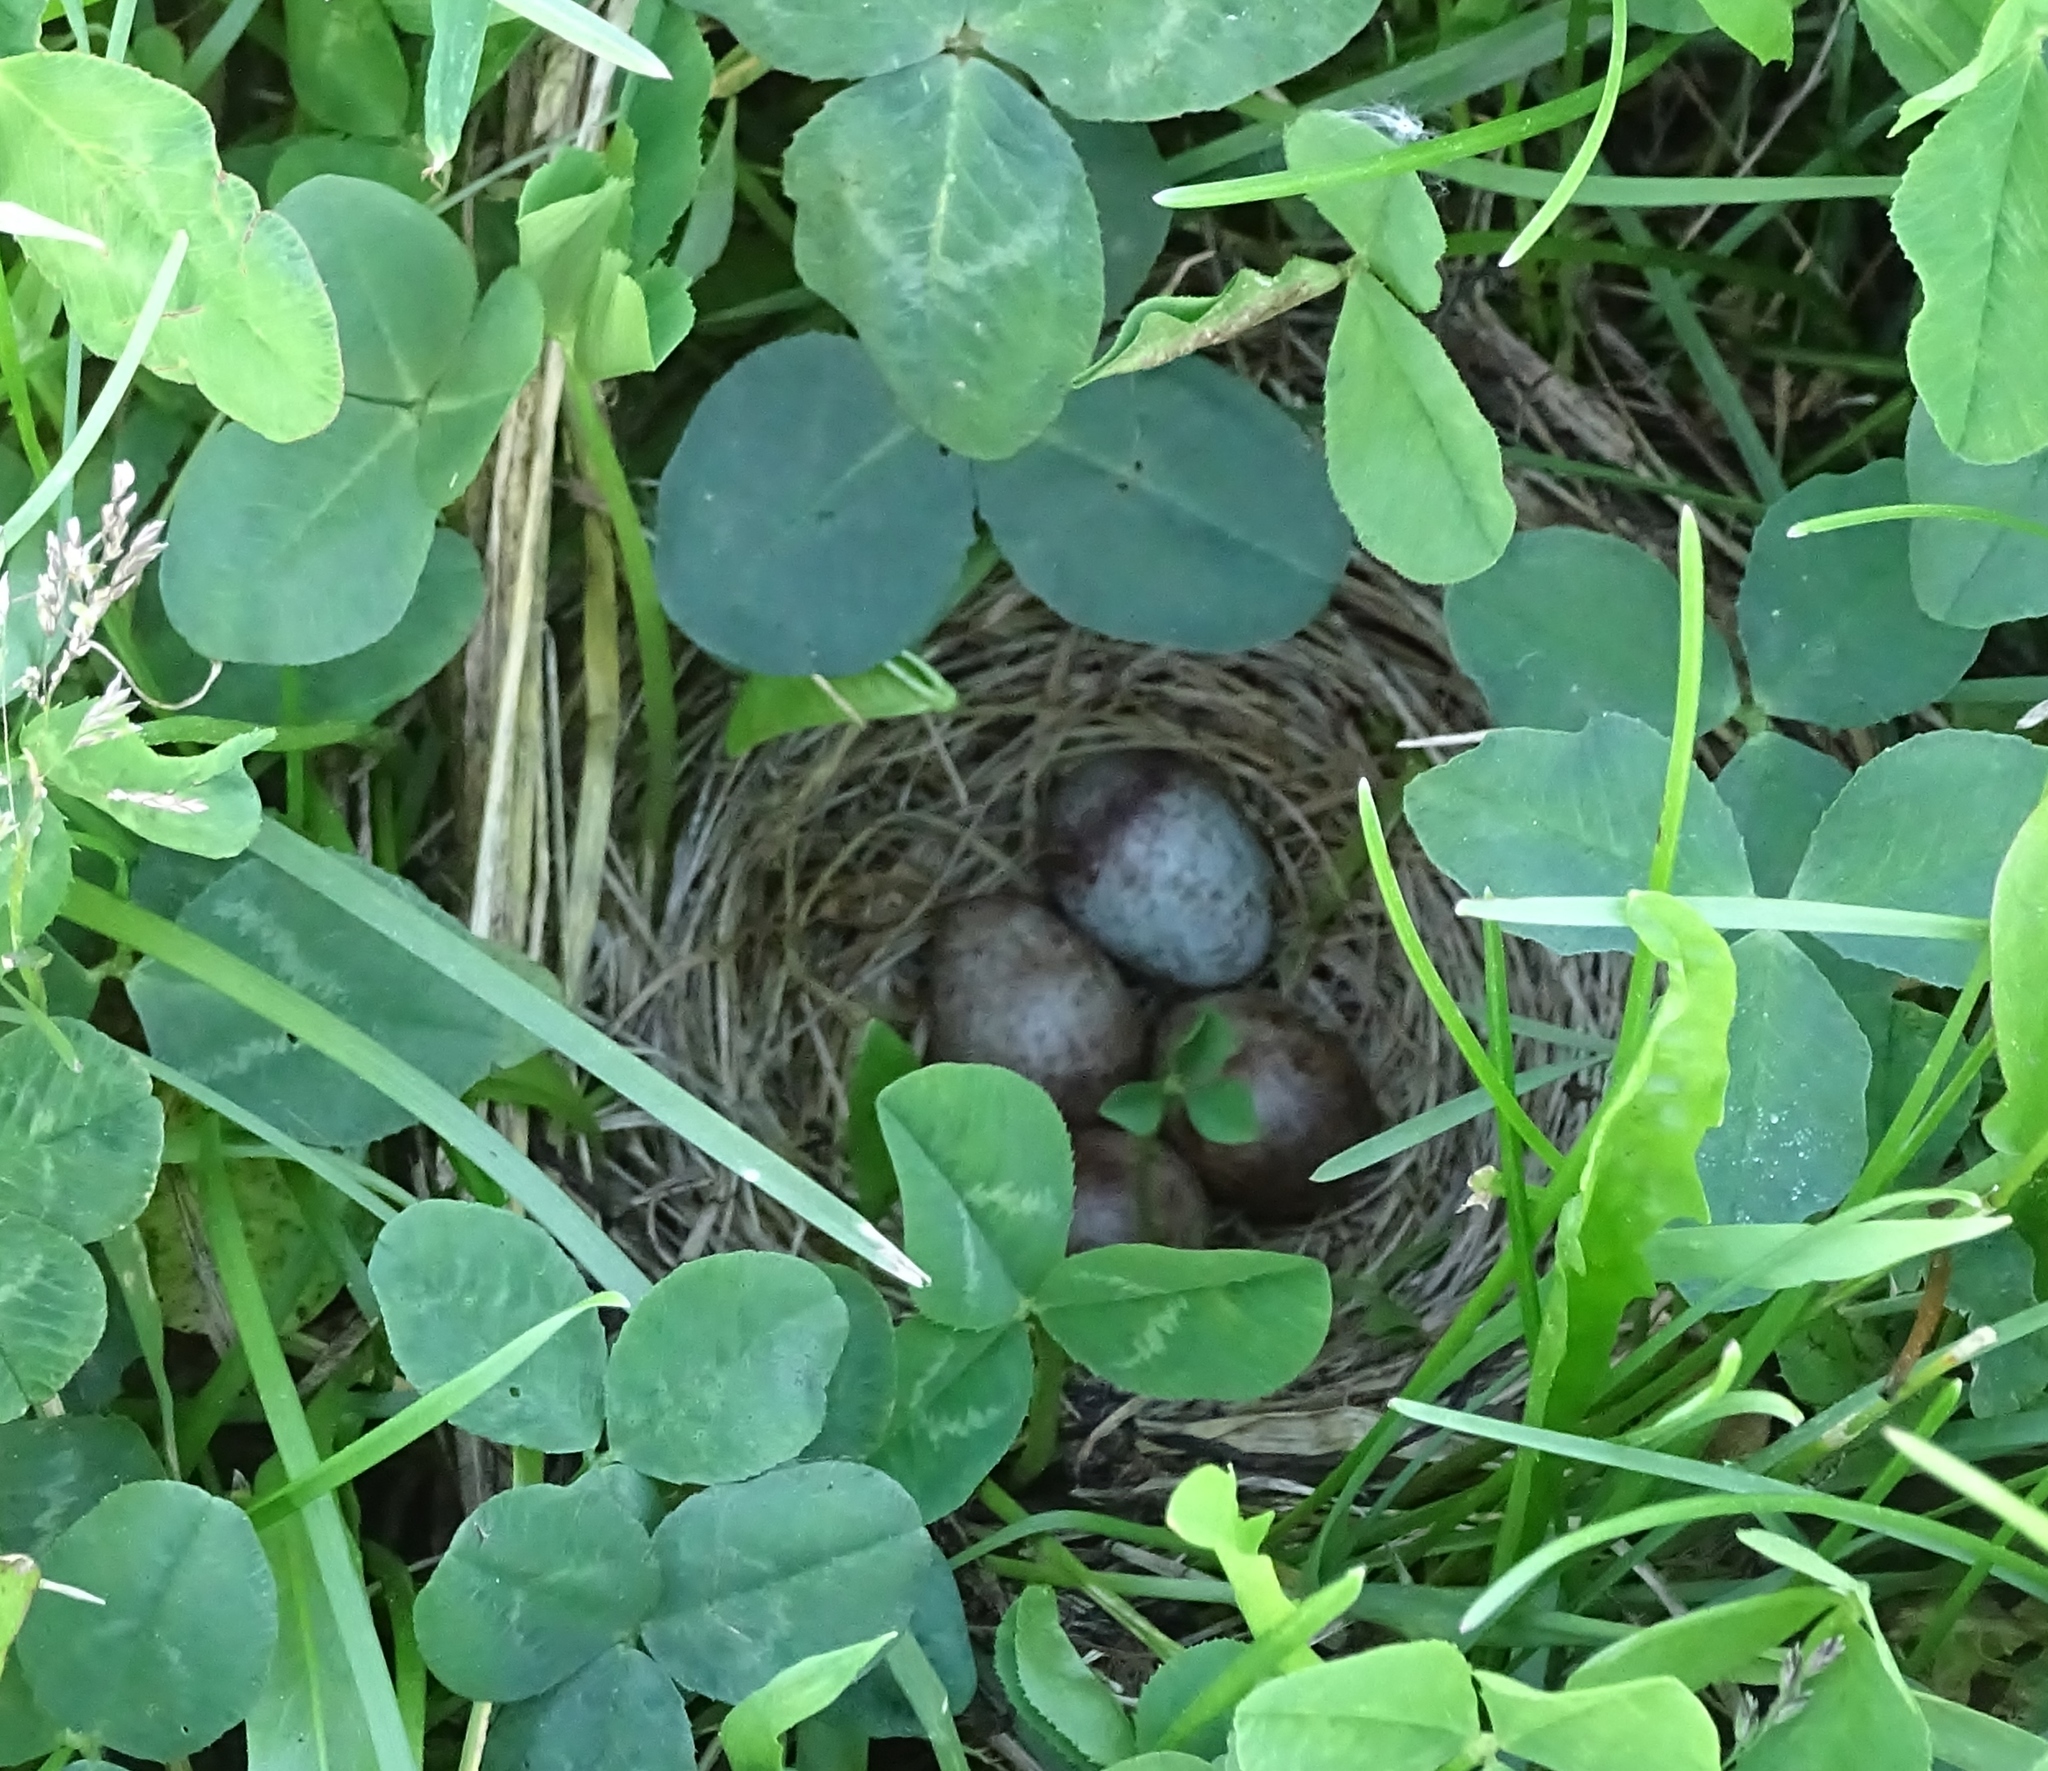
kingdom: Animalia
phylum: Chordata
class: Aves
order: Passeriformes
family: Passerellidae
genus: Passerculus
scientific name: Passerculus sandwichensis
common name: Savannah sparrow
